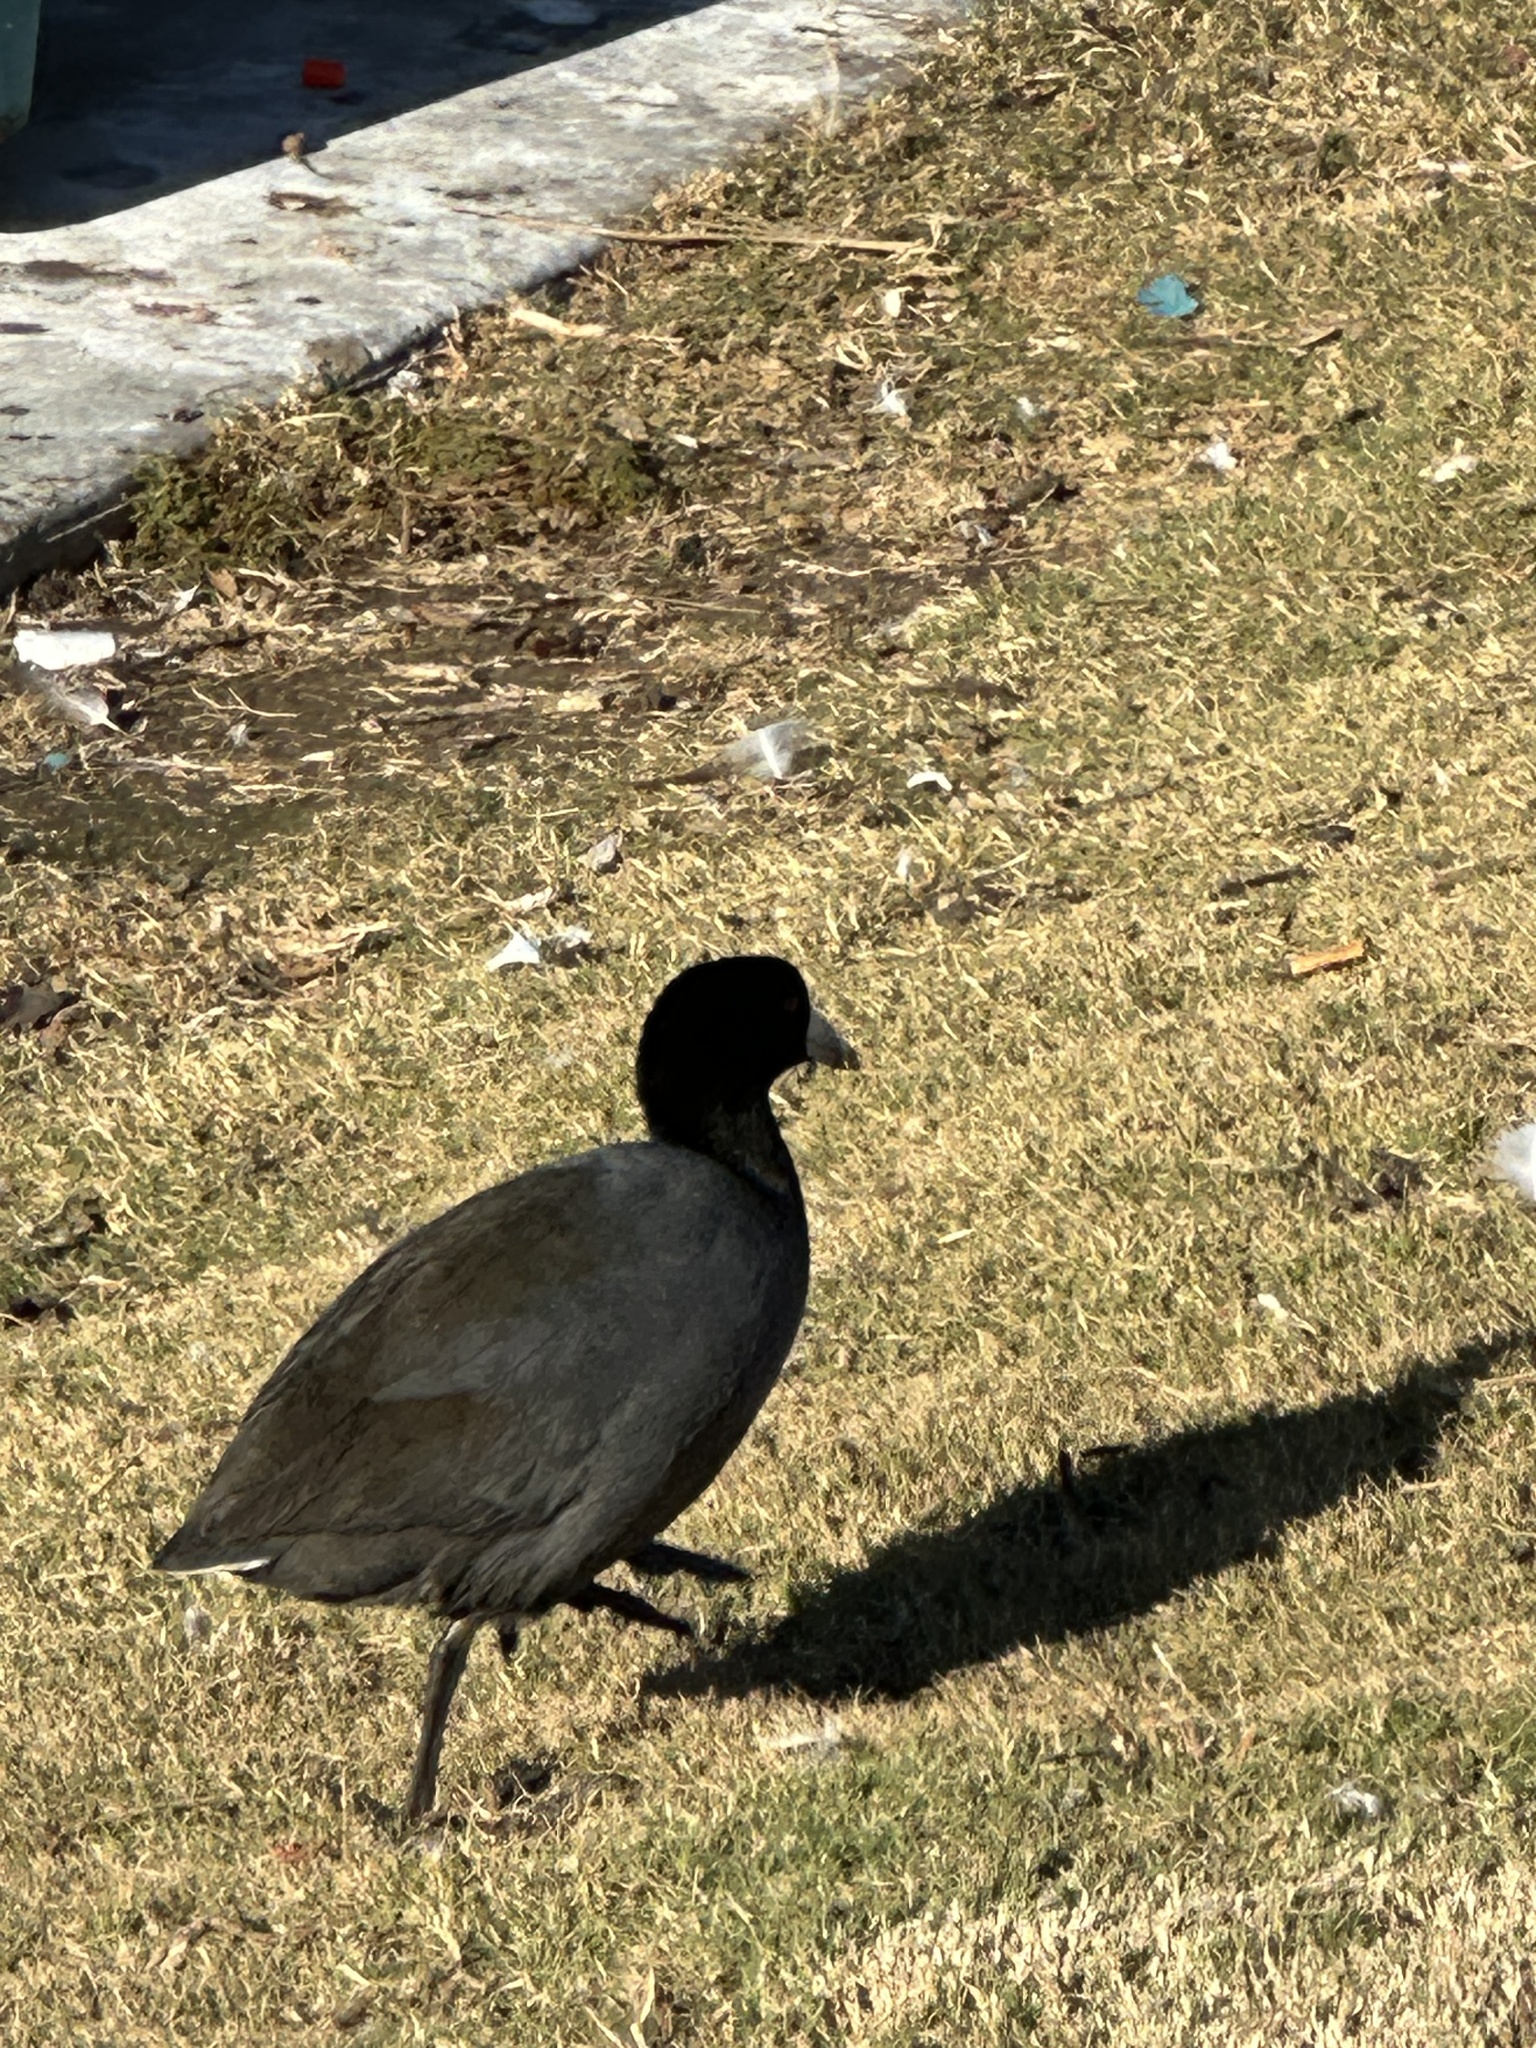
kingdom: Animalia
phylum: Chordata
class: Aves
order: Gruiformes
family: Rallidae
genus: Fulica
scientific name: Fulica americana
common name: American coot
